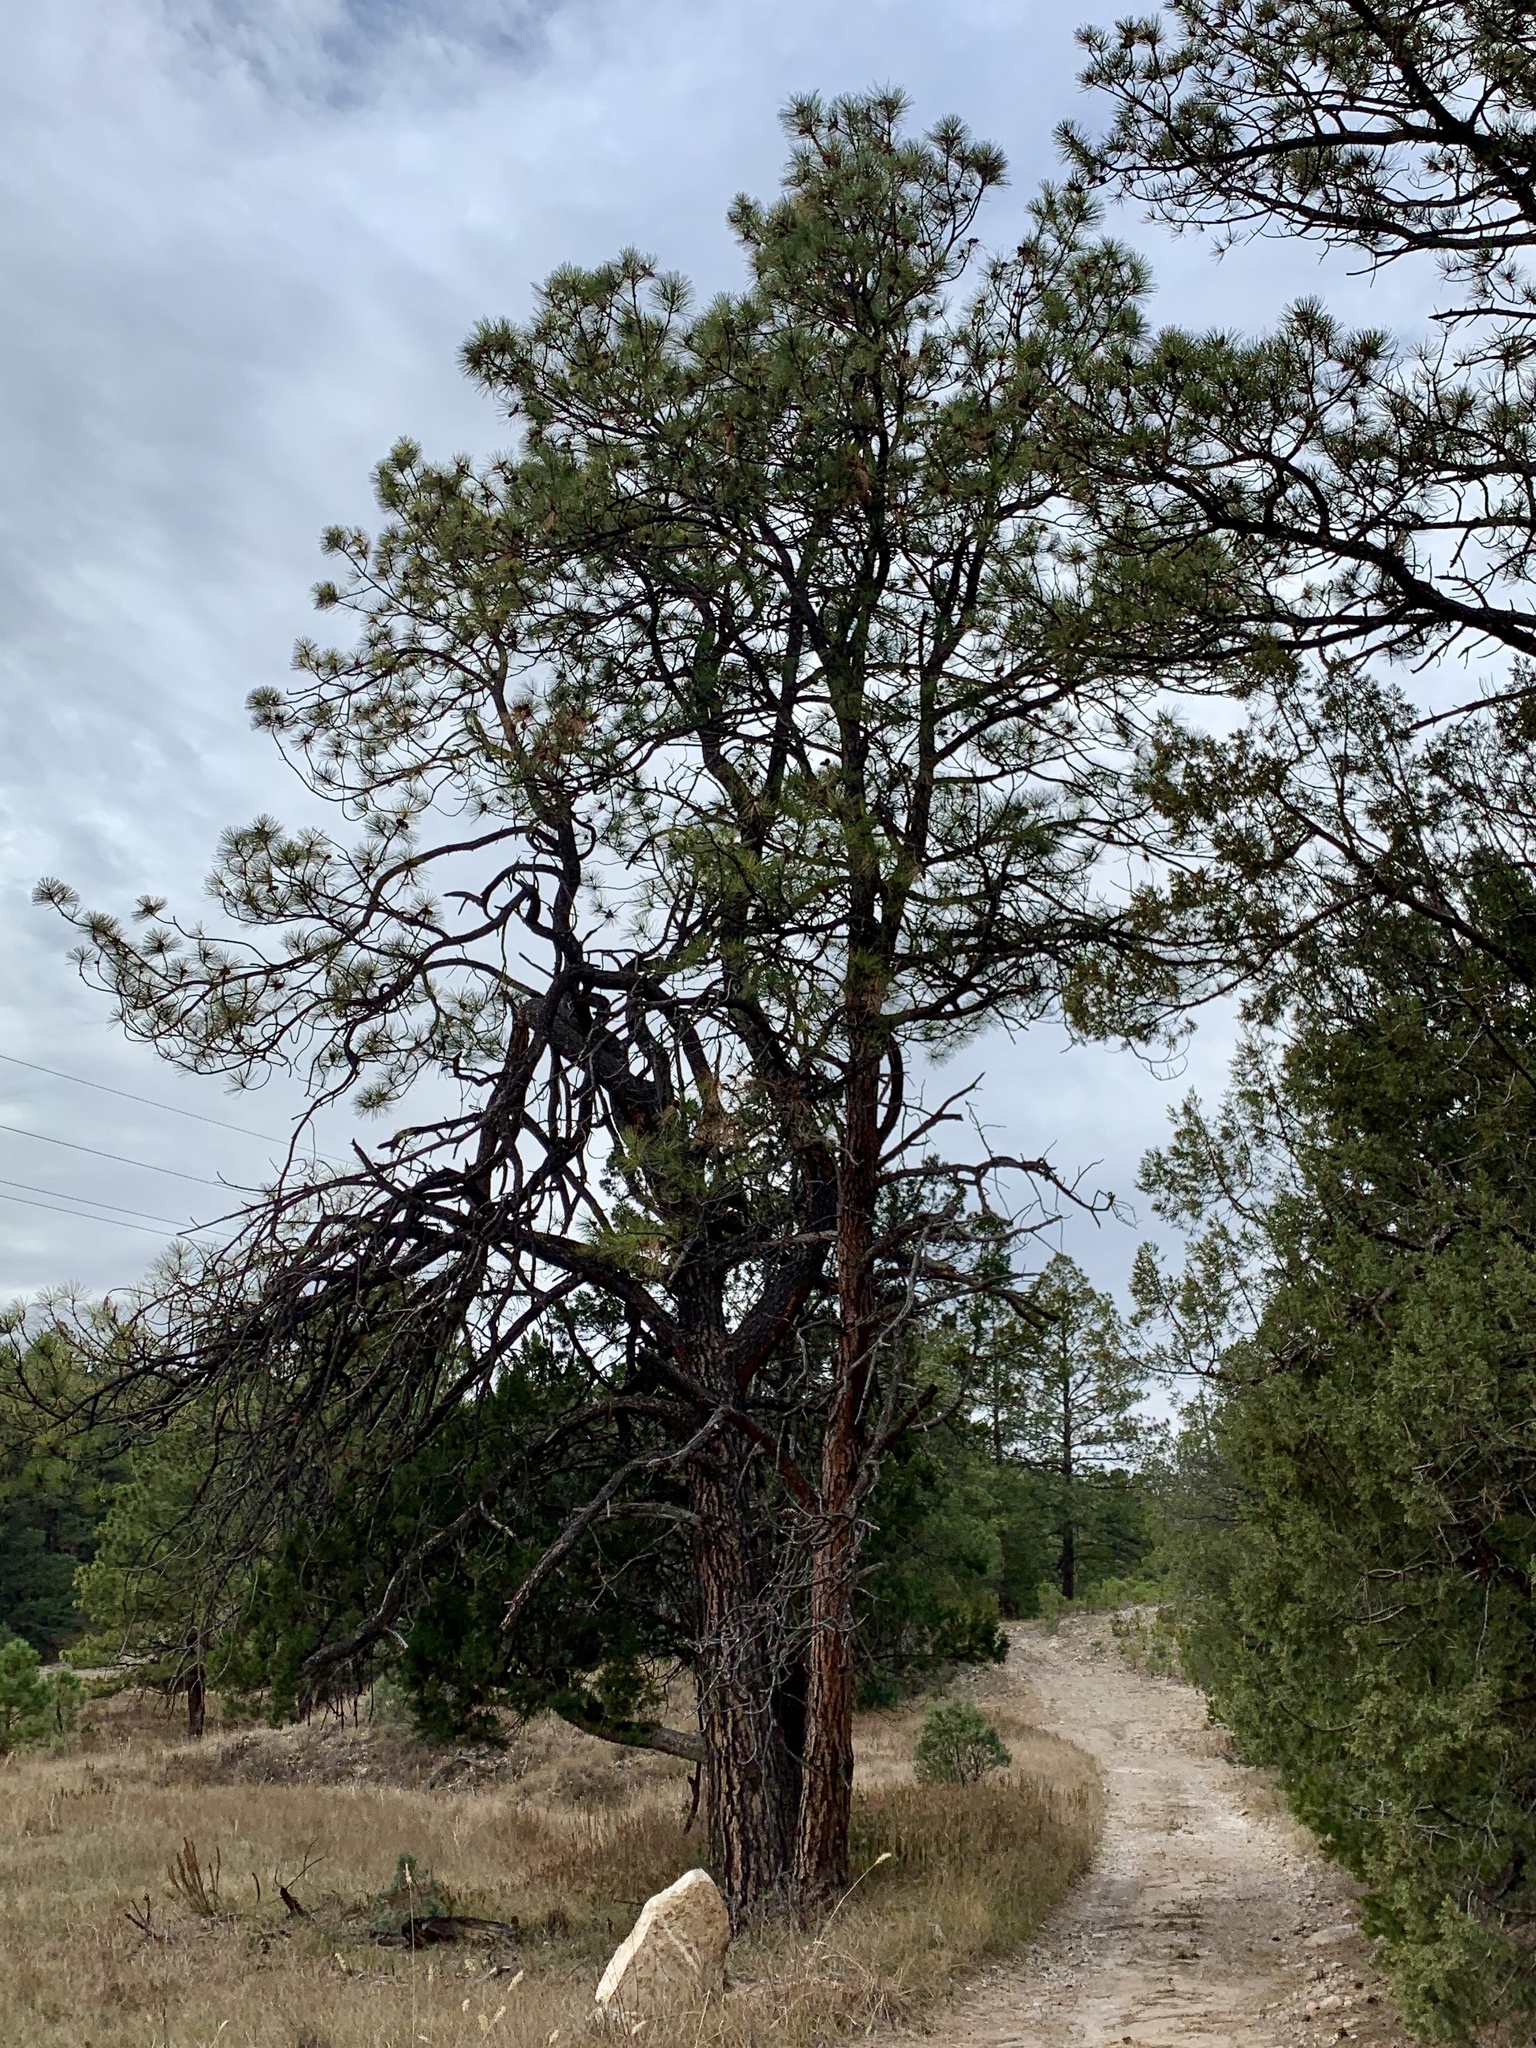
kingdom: Plantae
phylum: Tracheophyta
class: Pinopsida
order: Pinales
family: Pinaceae
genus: Pinus
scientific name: Pinus ponderosa
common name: Western yellow-pine
